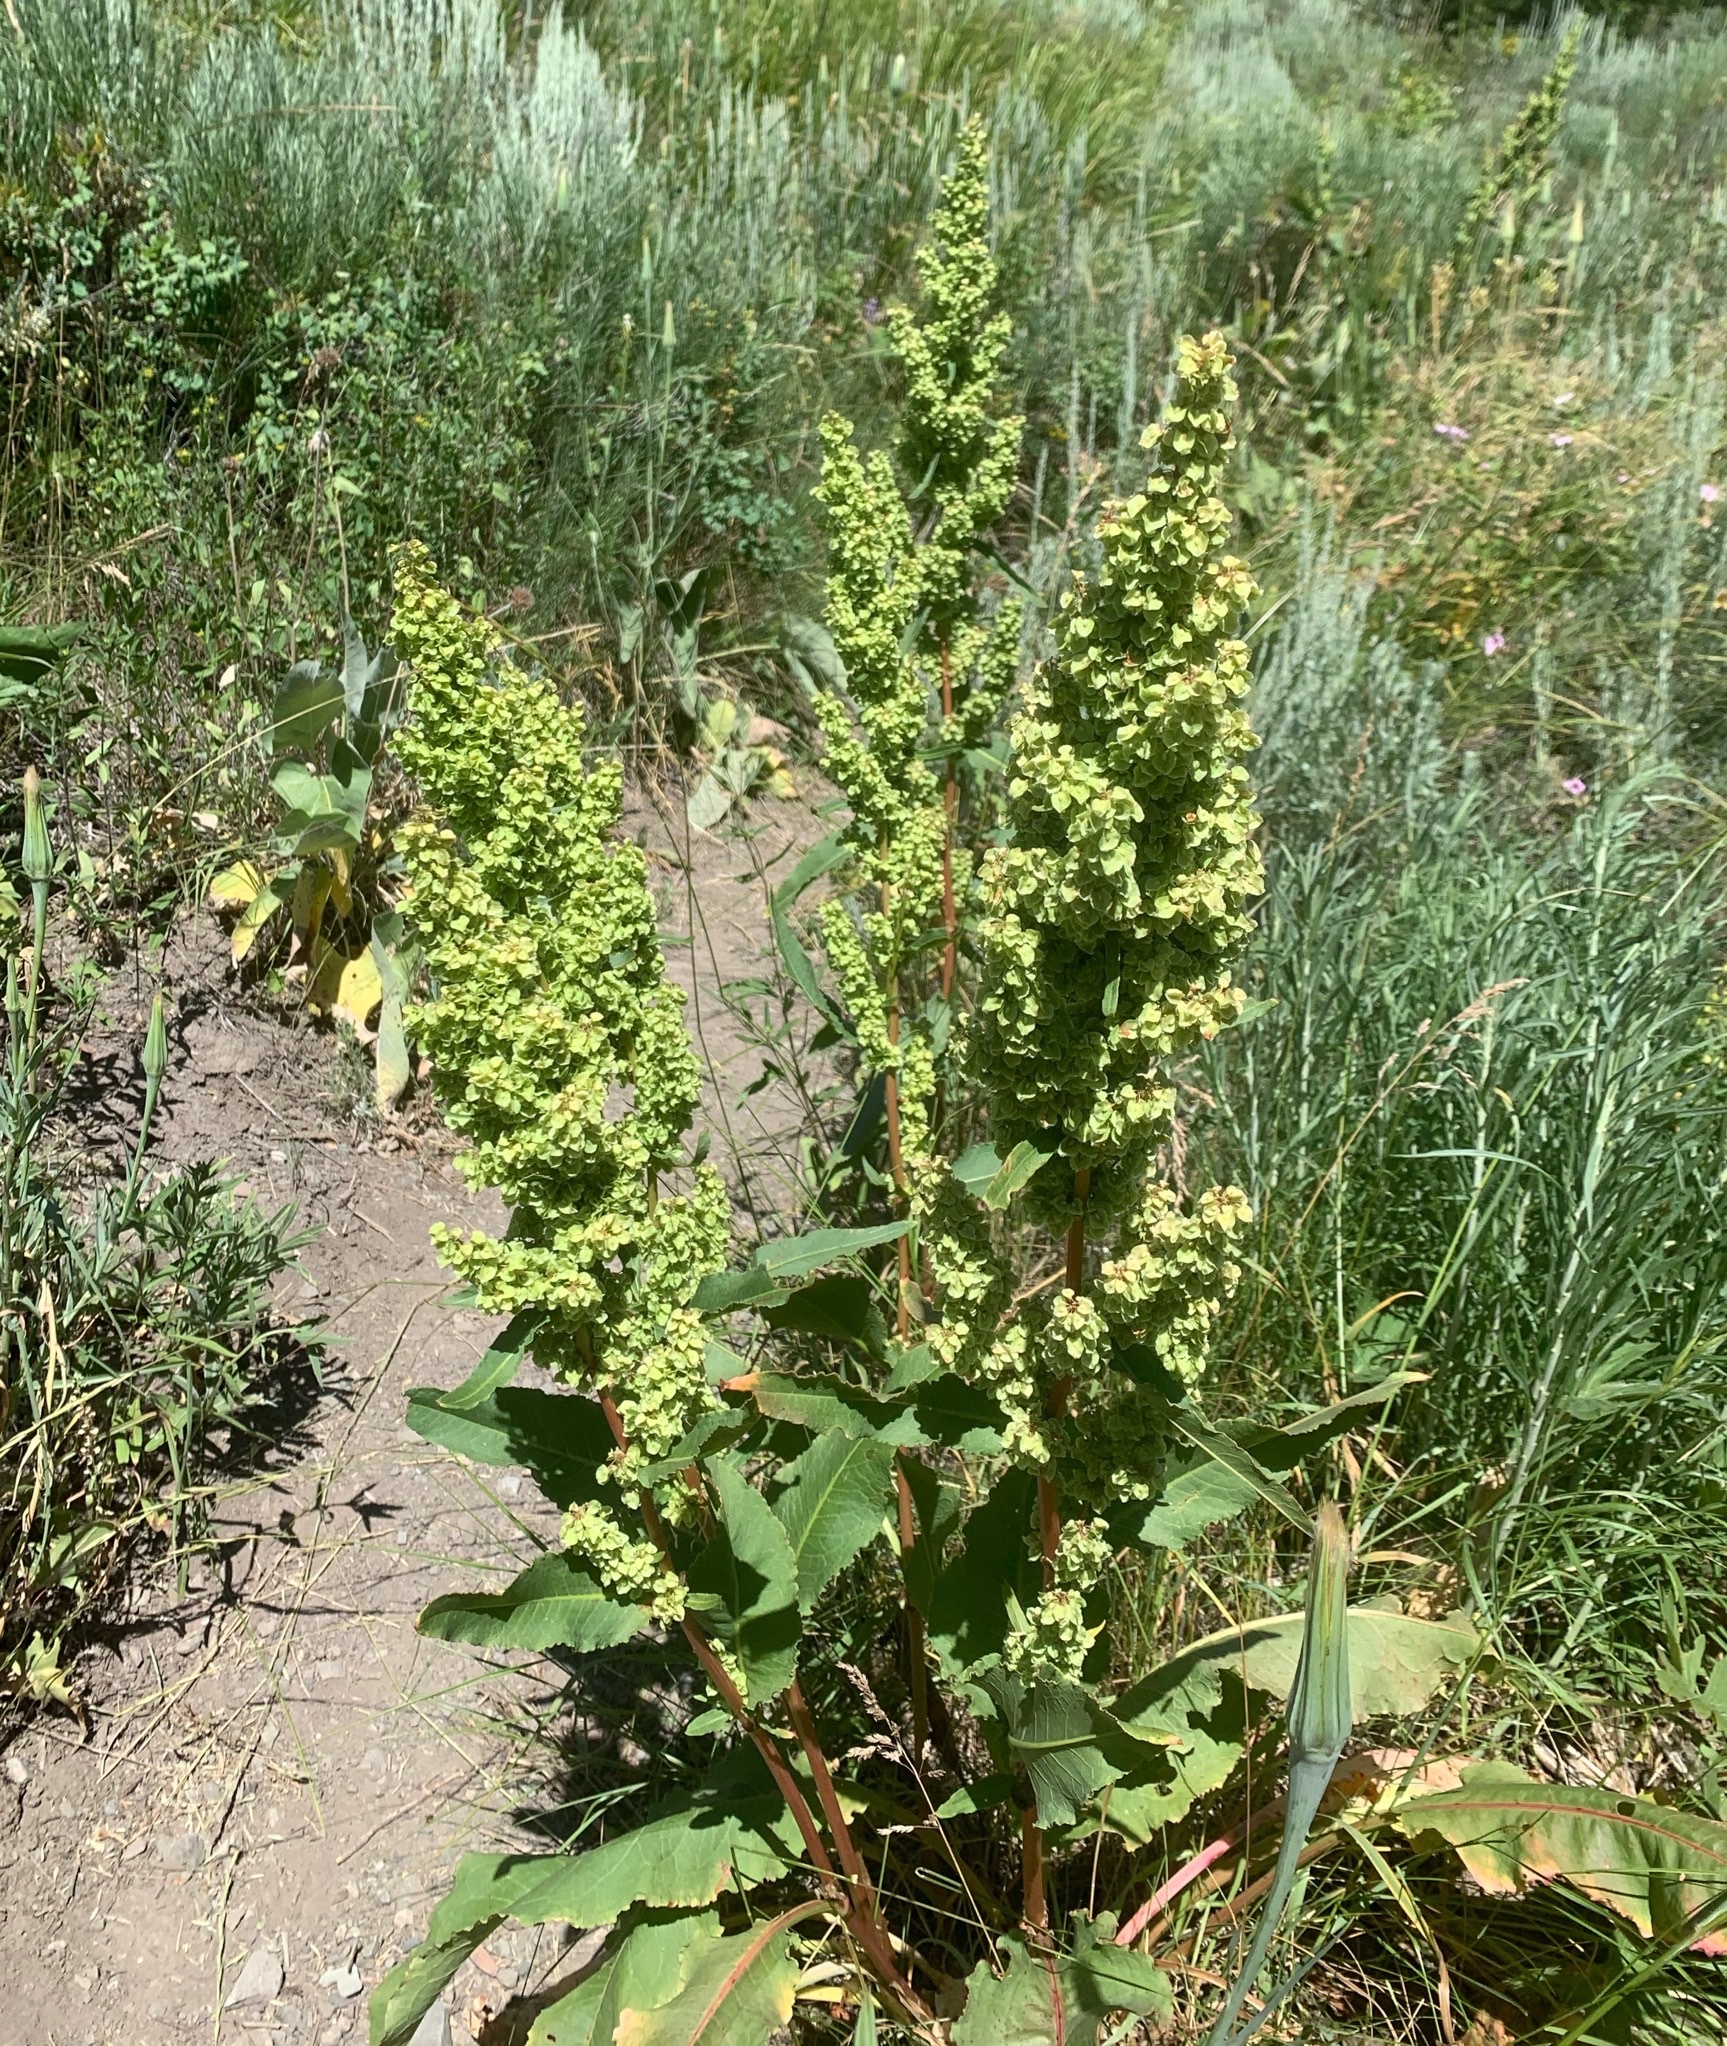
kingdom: Plantae
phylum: Tracheophyta
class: Magnoliopsida
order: Caryophyllales
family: Polygonaceae
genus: Rumex
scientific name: Rumex crispus
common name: Curled dock
